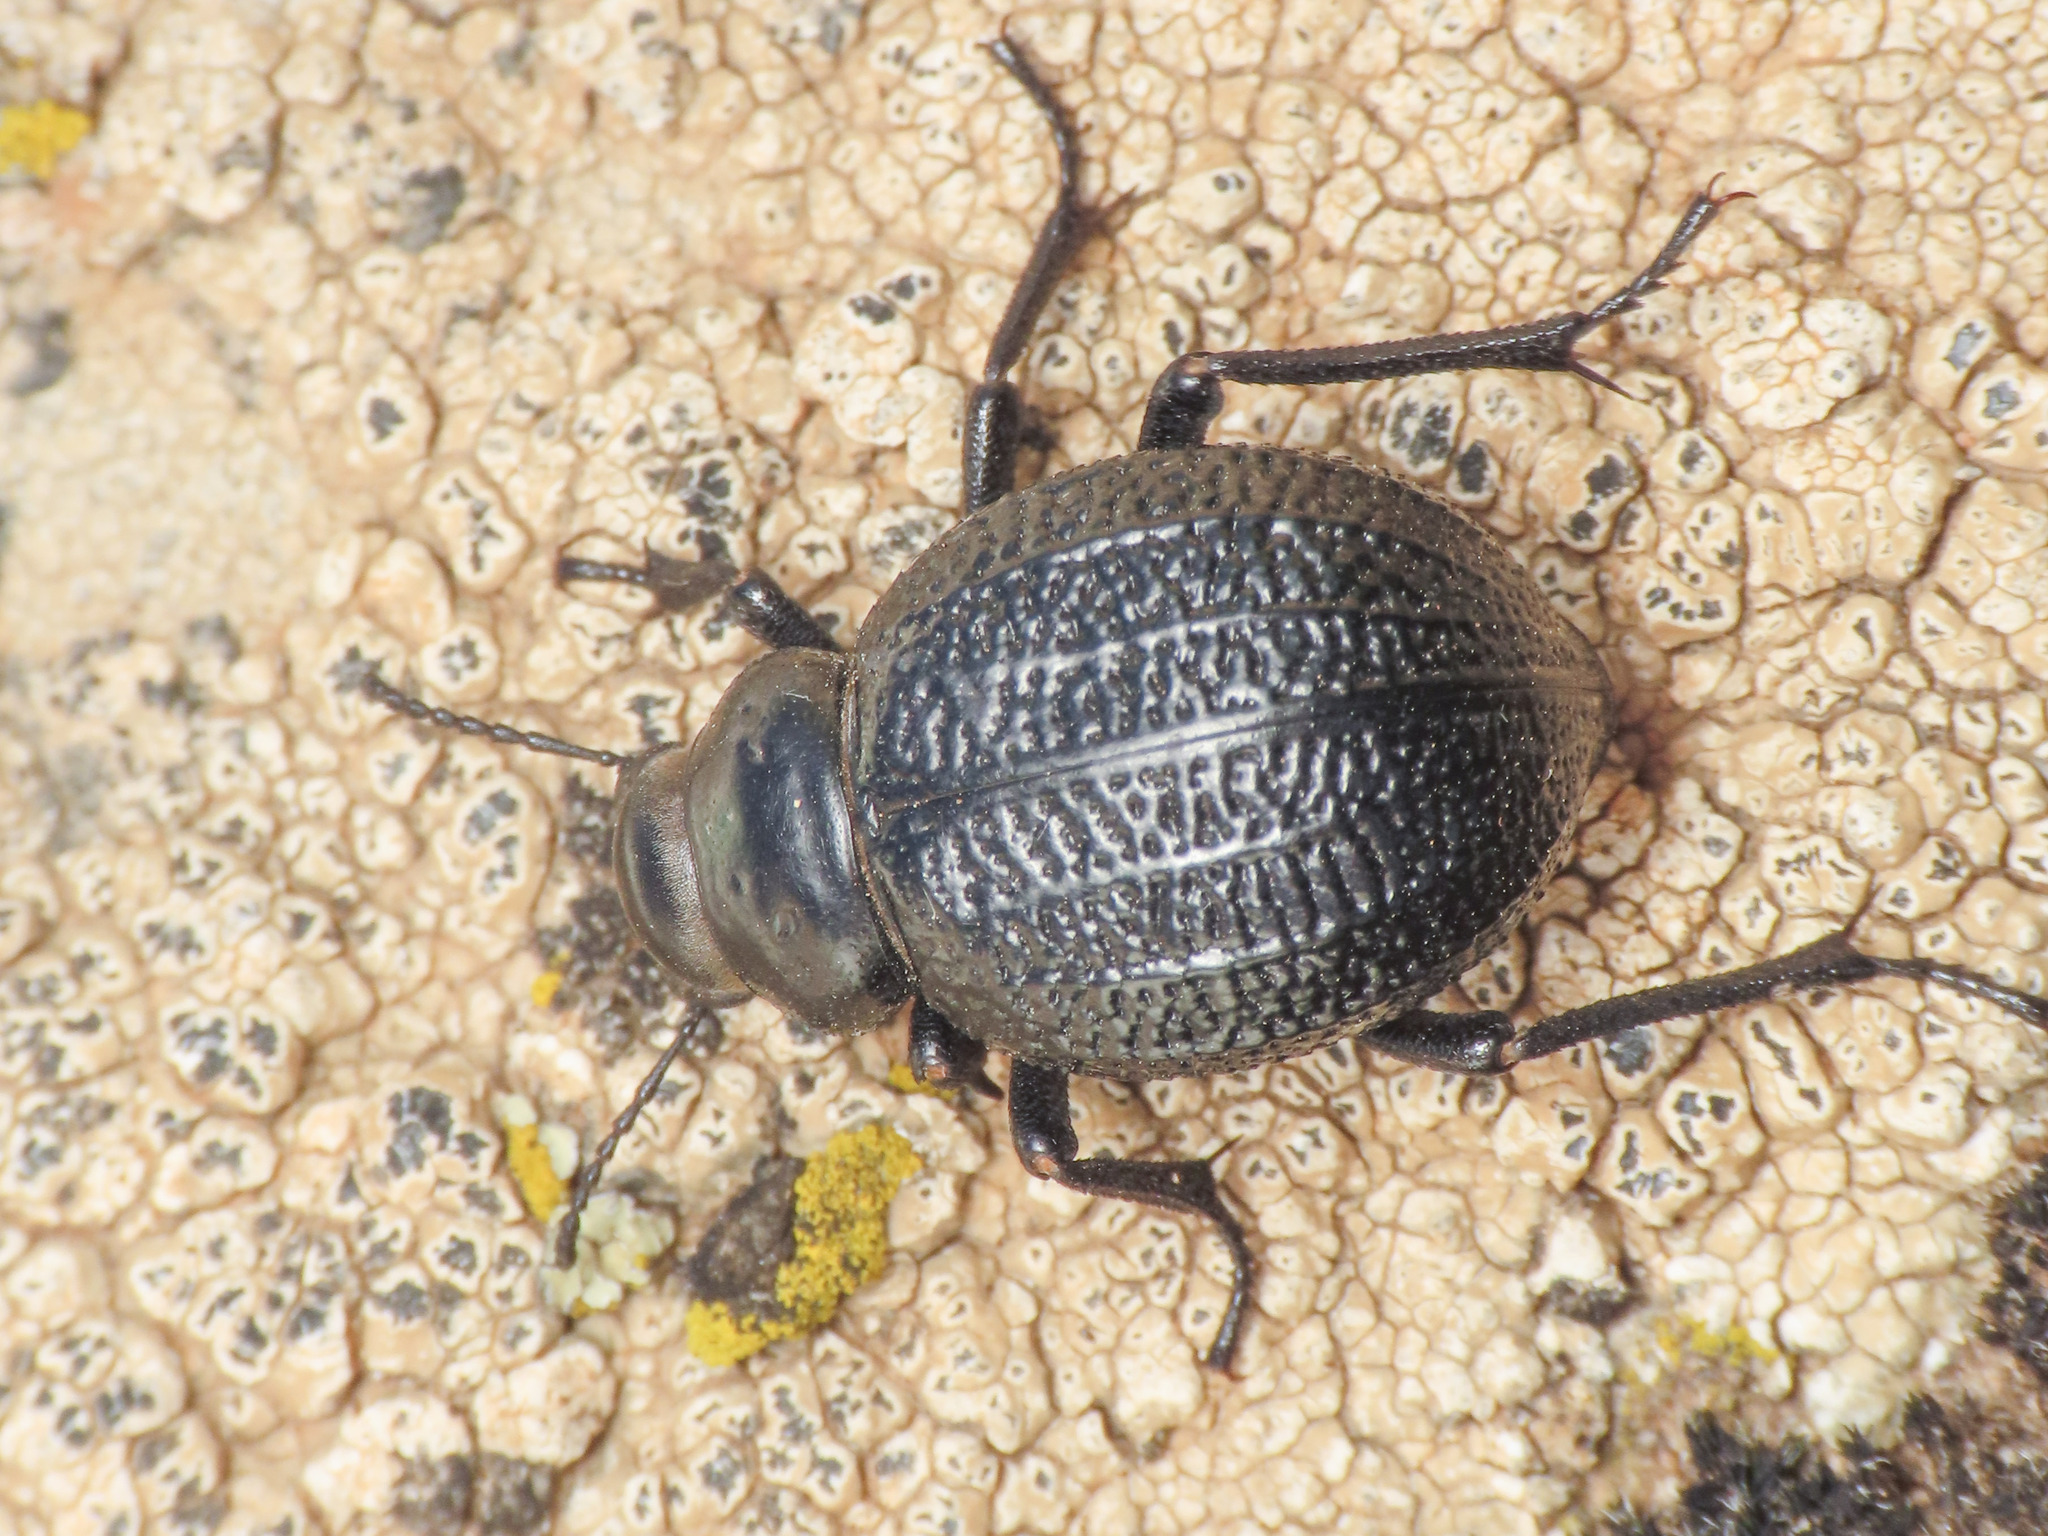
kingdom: Animalia
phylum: Arthropoda
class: Insecta
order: Coleoptera
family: Tenebrionidae
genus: Pimelia
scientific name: Pimelia goryi
